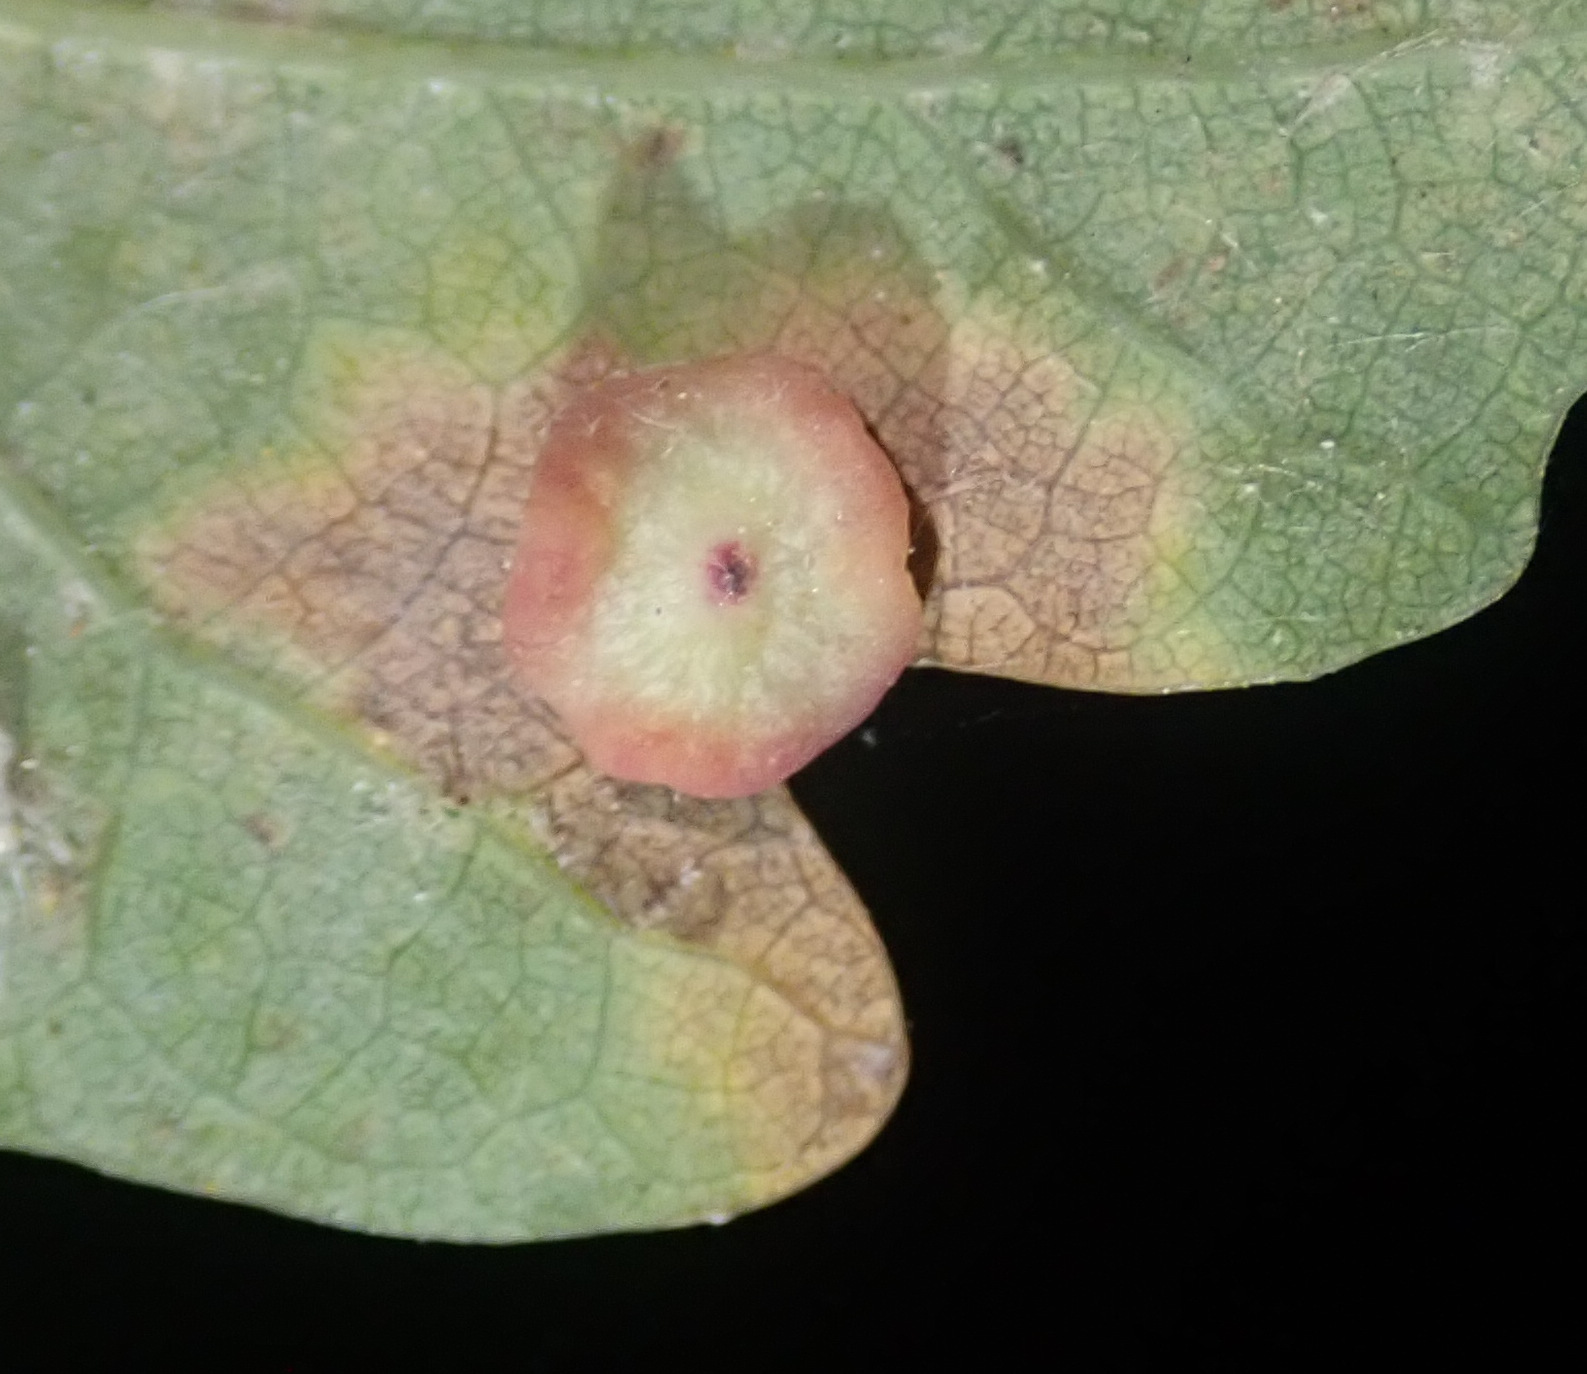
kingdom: Animalia
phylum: Arthropoda
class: Insecta
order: Hymenoptera
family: Cynipidae
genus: Neuroterus
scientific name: Neuroterus albipes
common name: Smooth spangle gall
